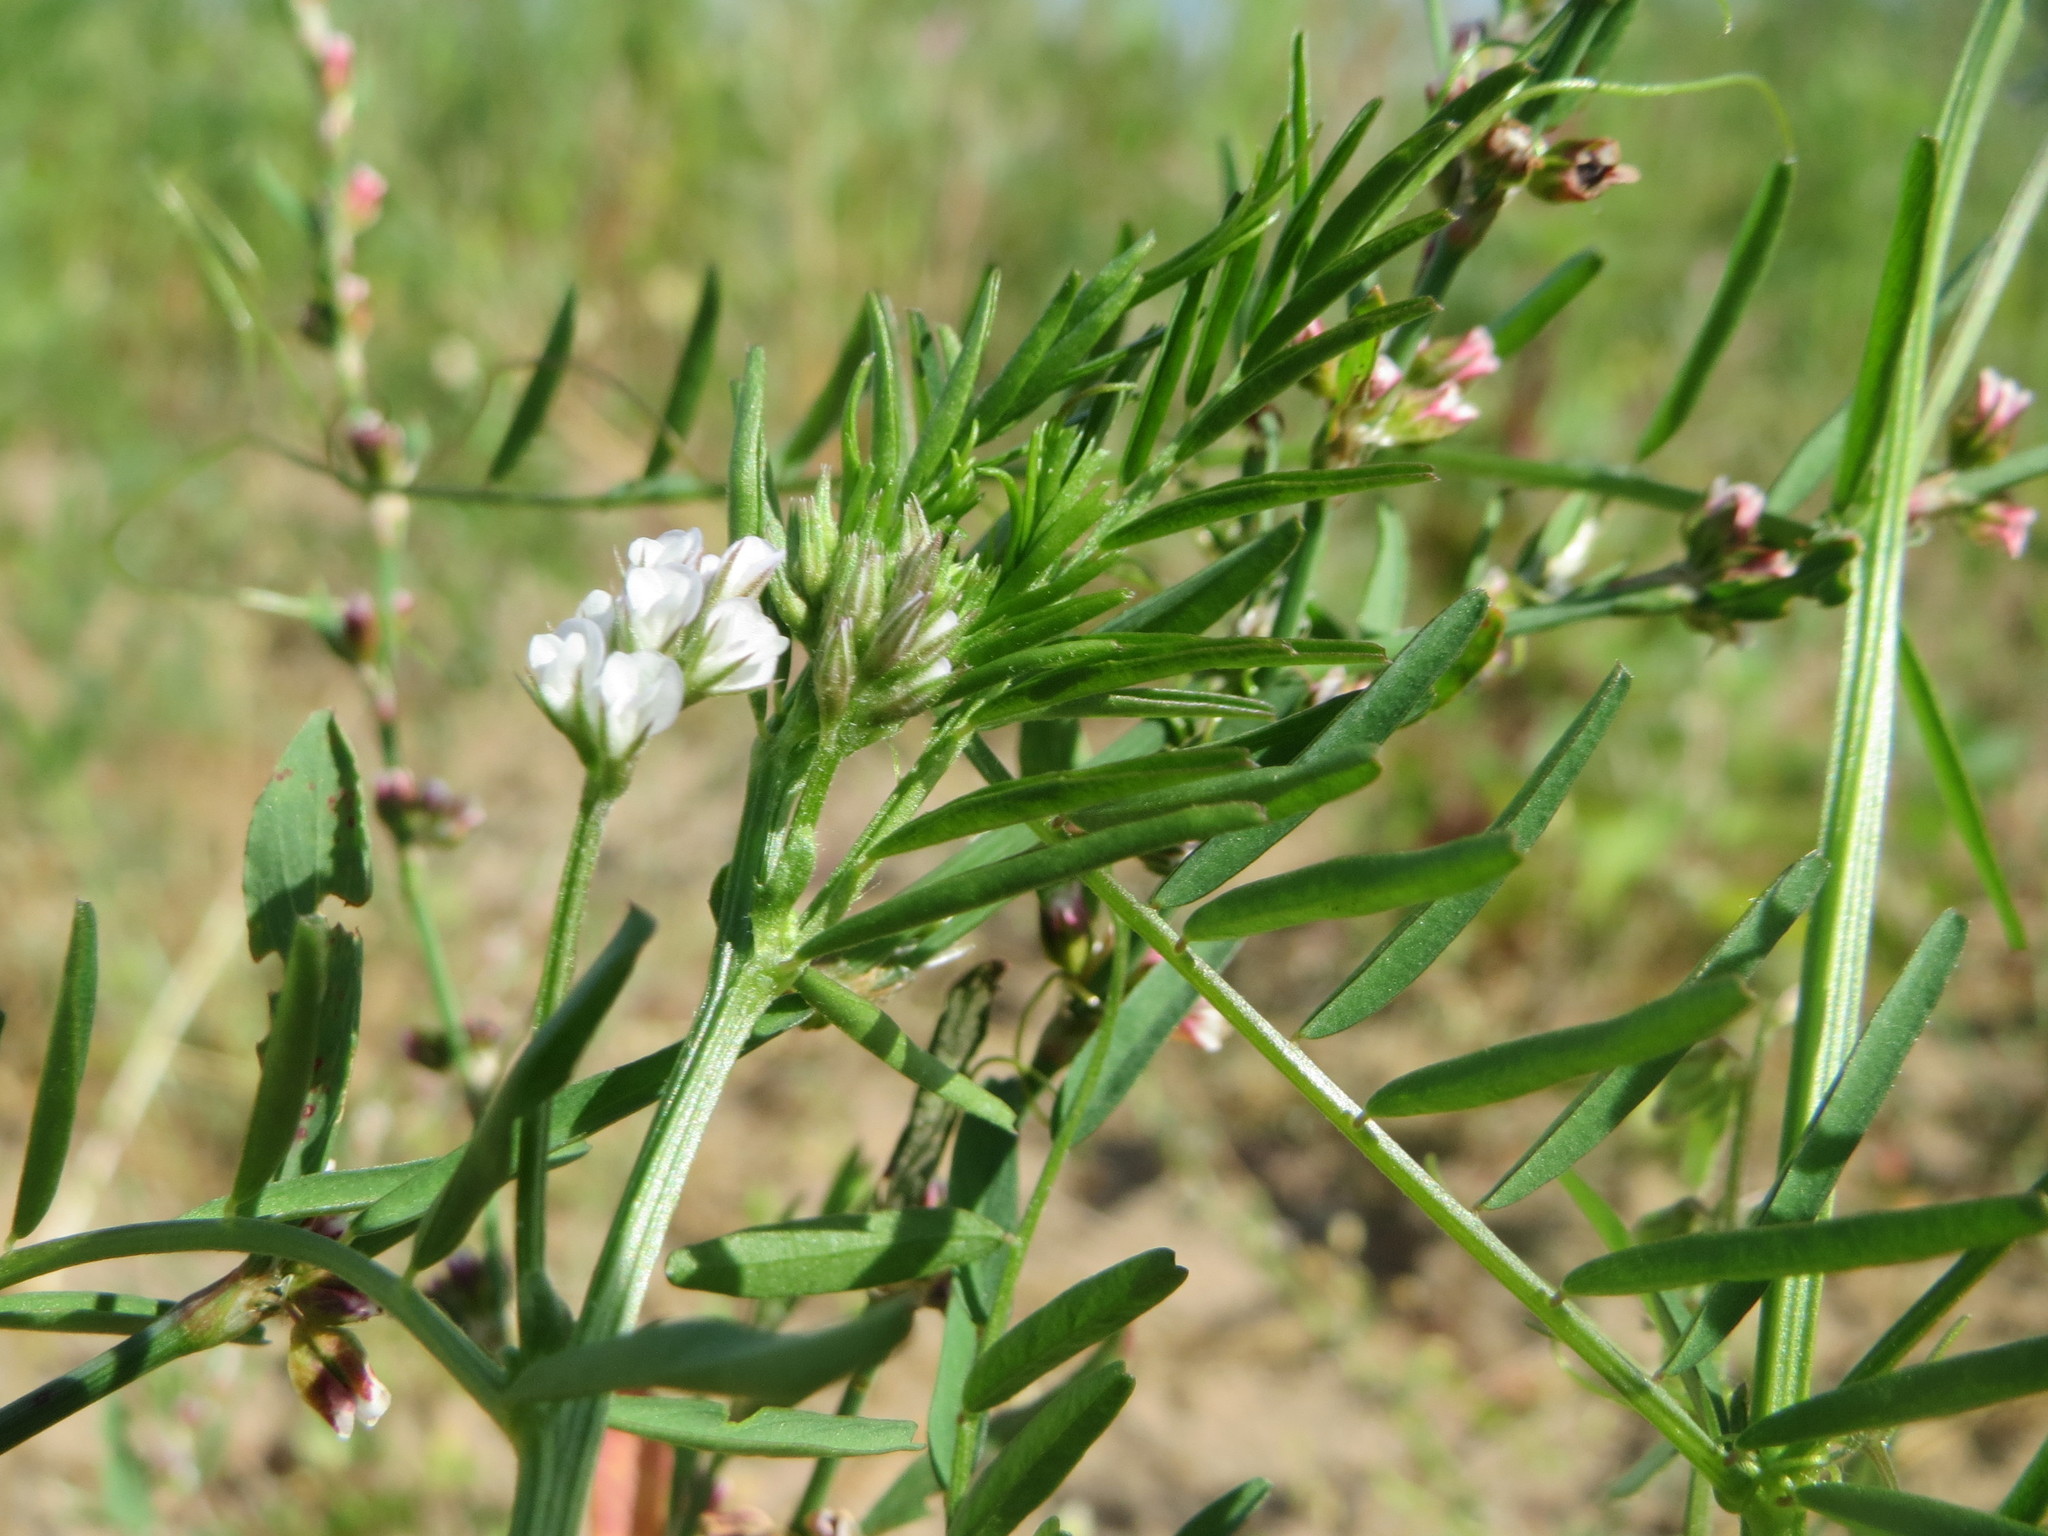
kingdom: Plantae
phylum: Tracheophyta
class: Magnoliopsida
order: Fabales
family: Fabaceae
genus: Vicia
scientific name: Vicia hirsuta
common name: Tiny vetch
